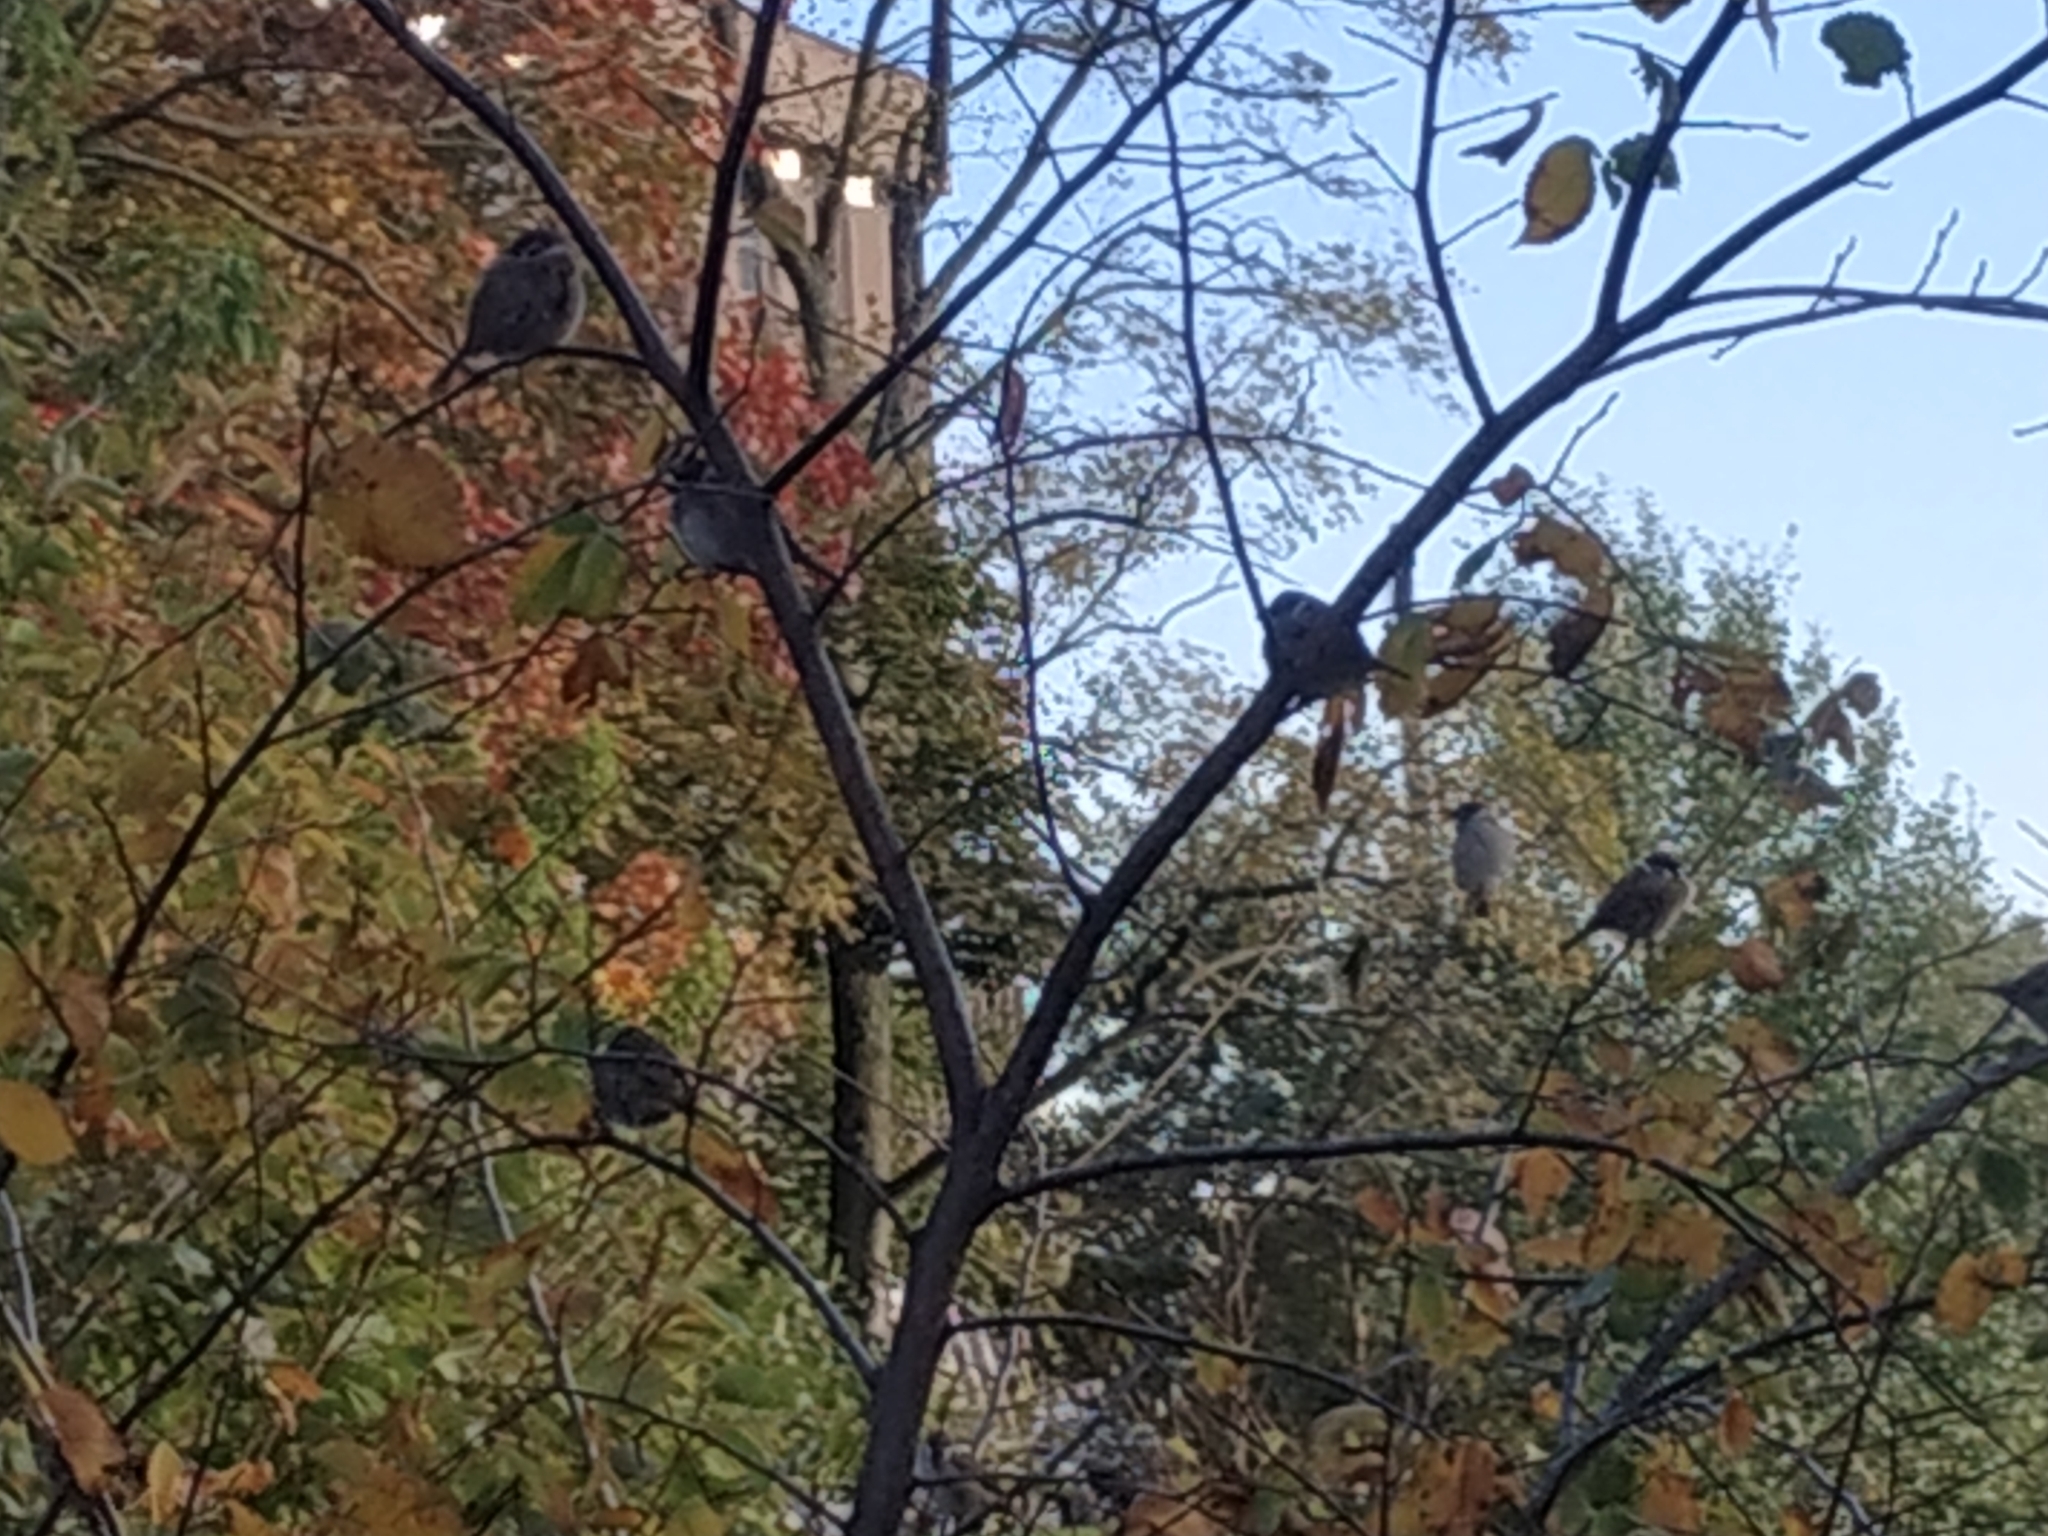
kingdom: Animalia
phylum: Chordata
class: Aves
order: Passeriformes
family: Passeridae
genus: Passer
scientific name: Passer montanus
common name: Eurasian tree sparrow
